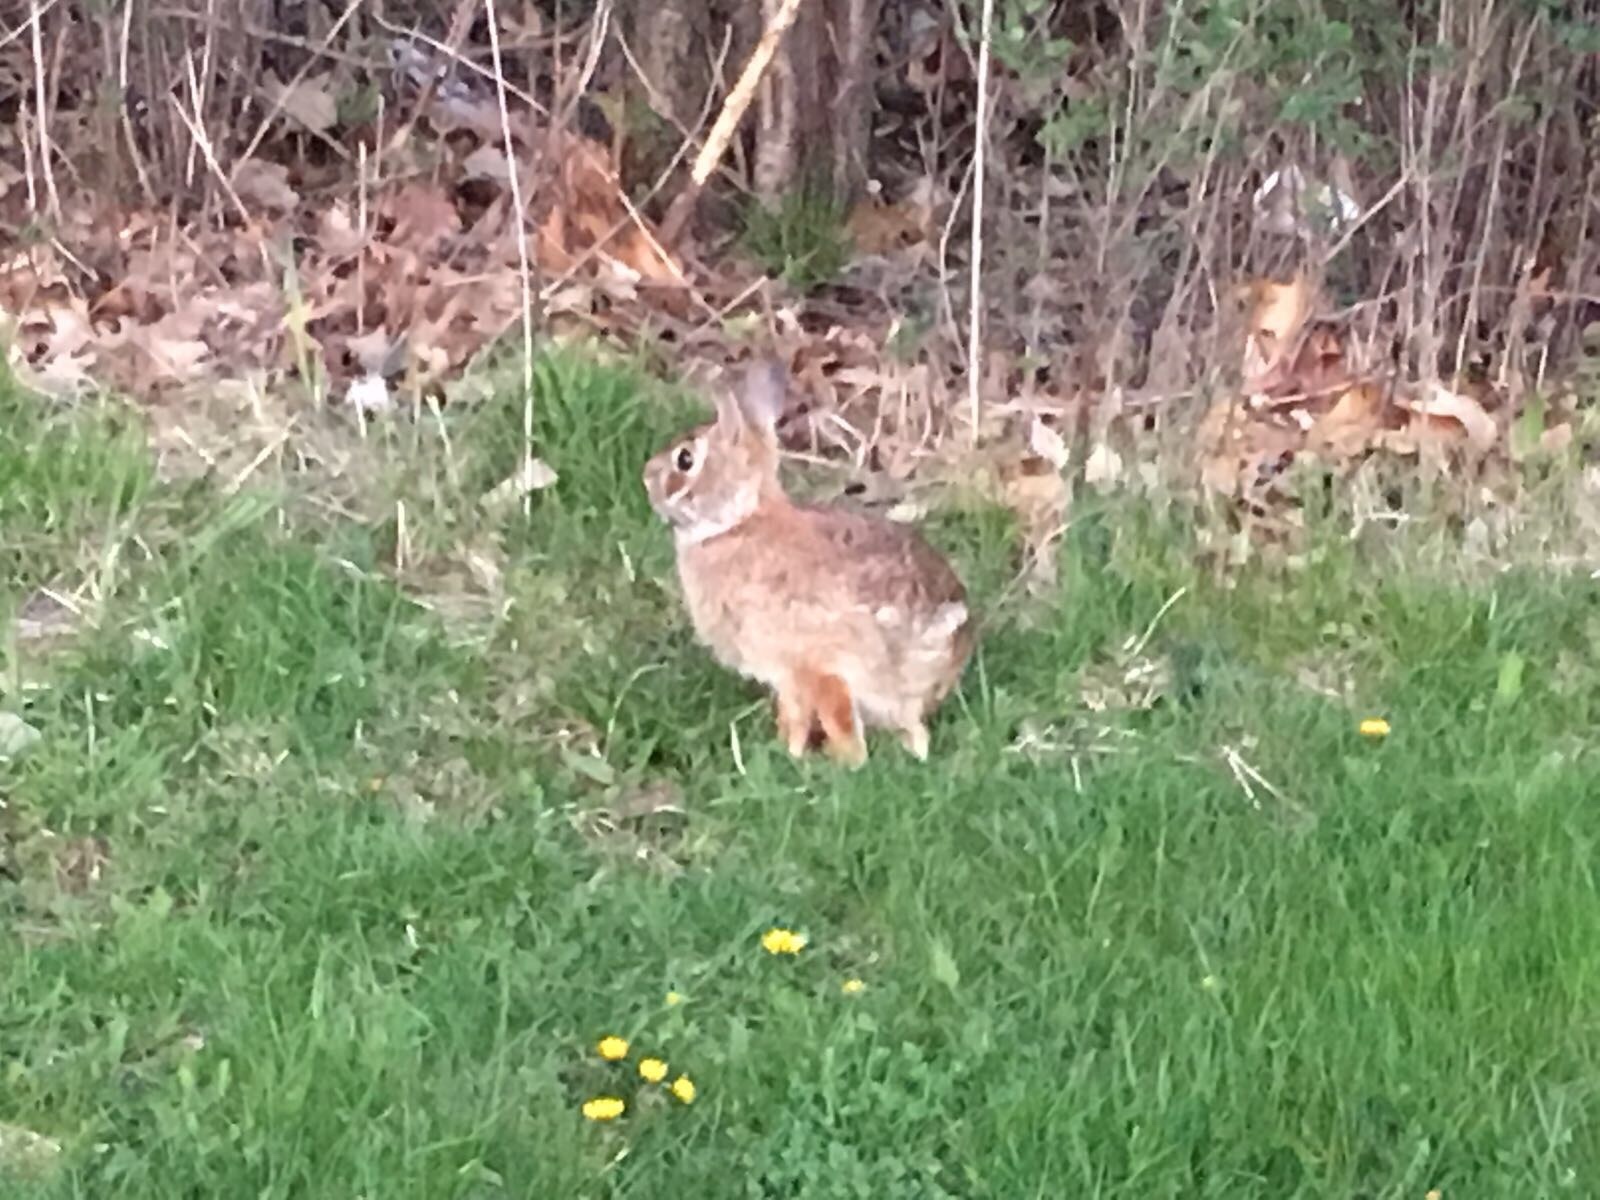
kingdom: Animalia
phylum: Chordata
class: Mammalia
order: Lagomorpha
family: Leporidae
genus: Sylvilagus
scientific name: Sylvilagus floridanus
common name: Eastern cottontail
